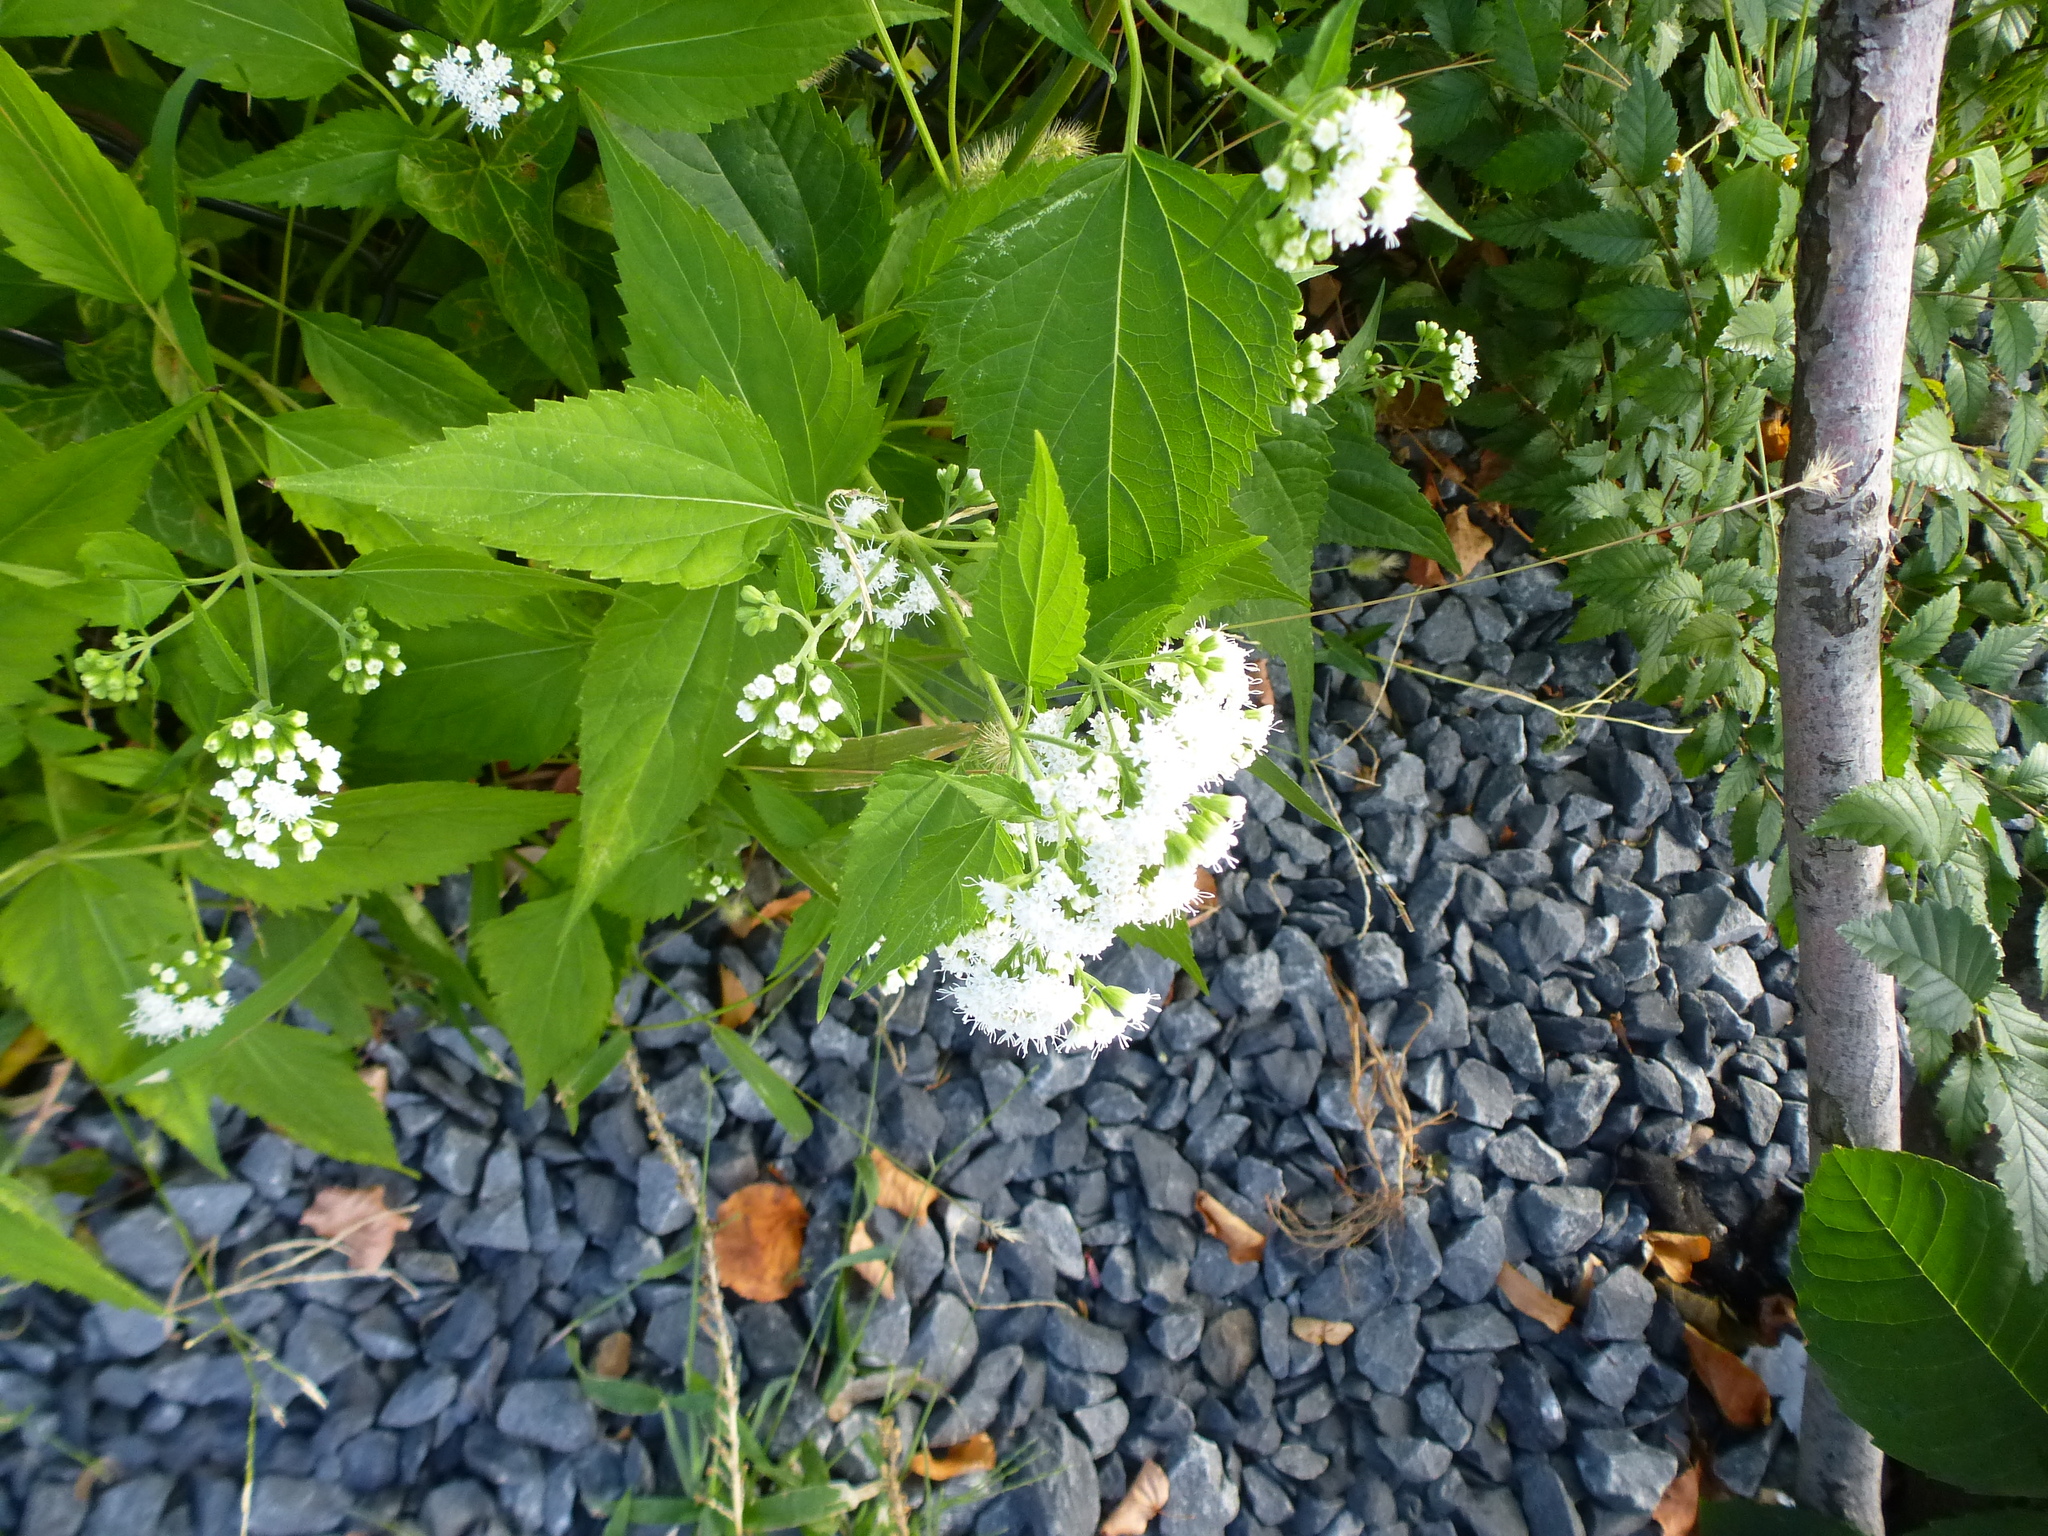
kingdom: Plantae
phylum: Tracheophyta
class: Magnoliopsida
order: Asterales
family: Asteraceae
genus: Ageratina
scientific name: Ageratina altissima
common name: White snakeroot
